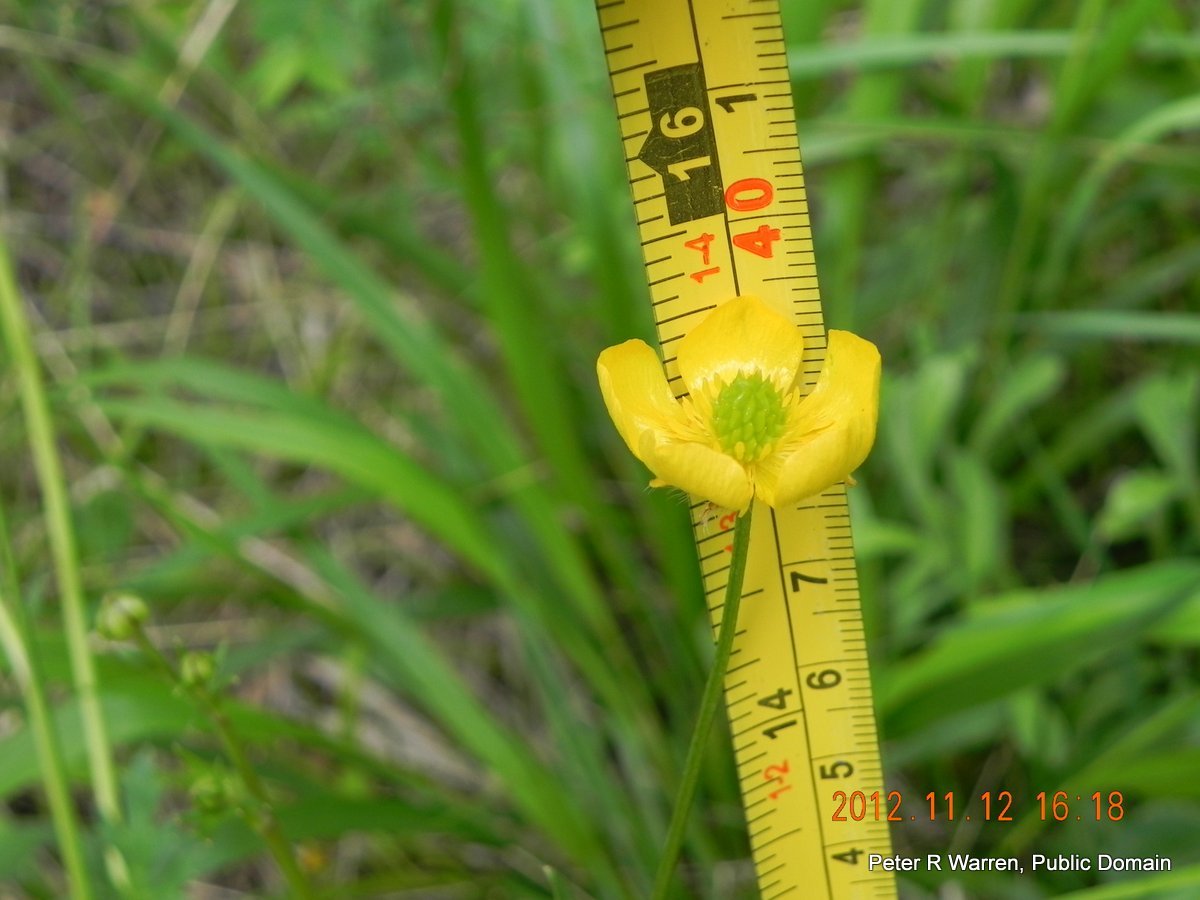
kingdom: Plantae
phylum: Tracheophyta
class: Magnoliopsida
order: Ranunculales
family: Ranunculaceae
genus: Ranunculus
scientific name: Ranunculus multifidus
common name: Wild buttercup
